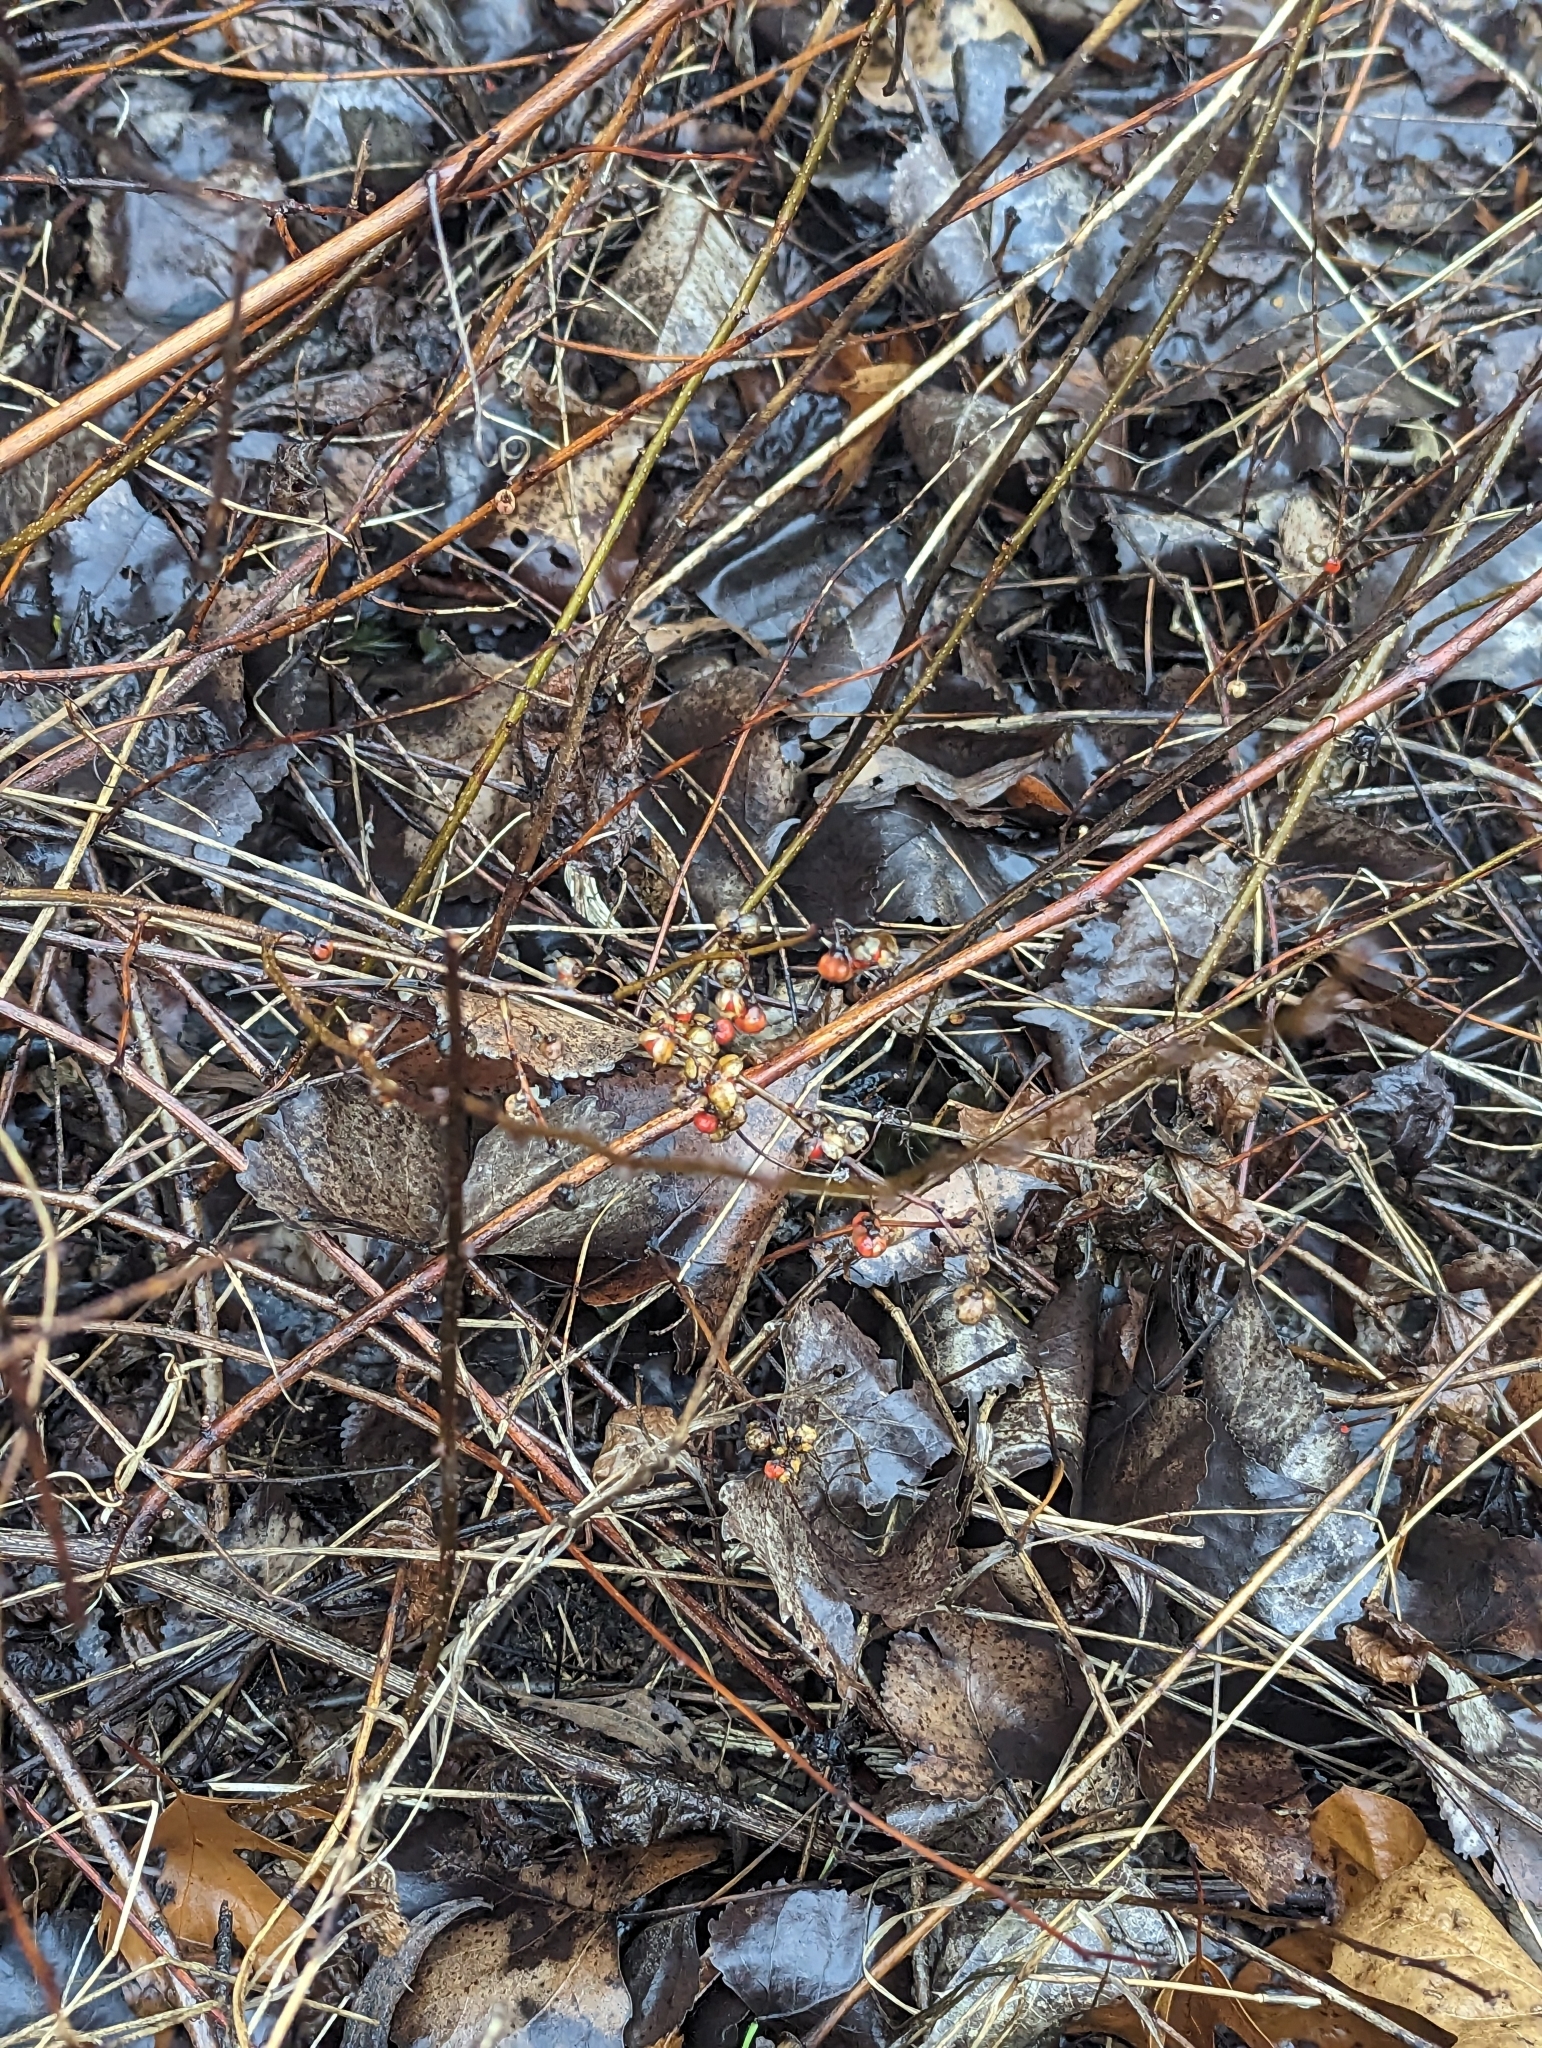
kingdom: Plantae
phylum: Tracheophyta
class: Magnoliopsida
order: Celastrales
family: Celastraceae
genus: Celastrus
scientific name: Celastrus orbiculatus
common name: Oriental bittersweet
